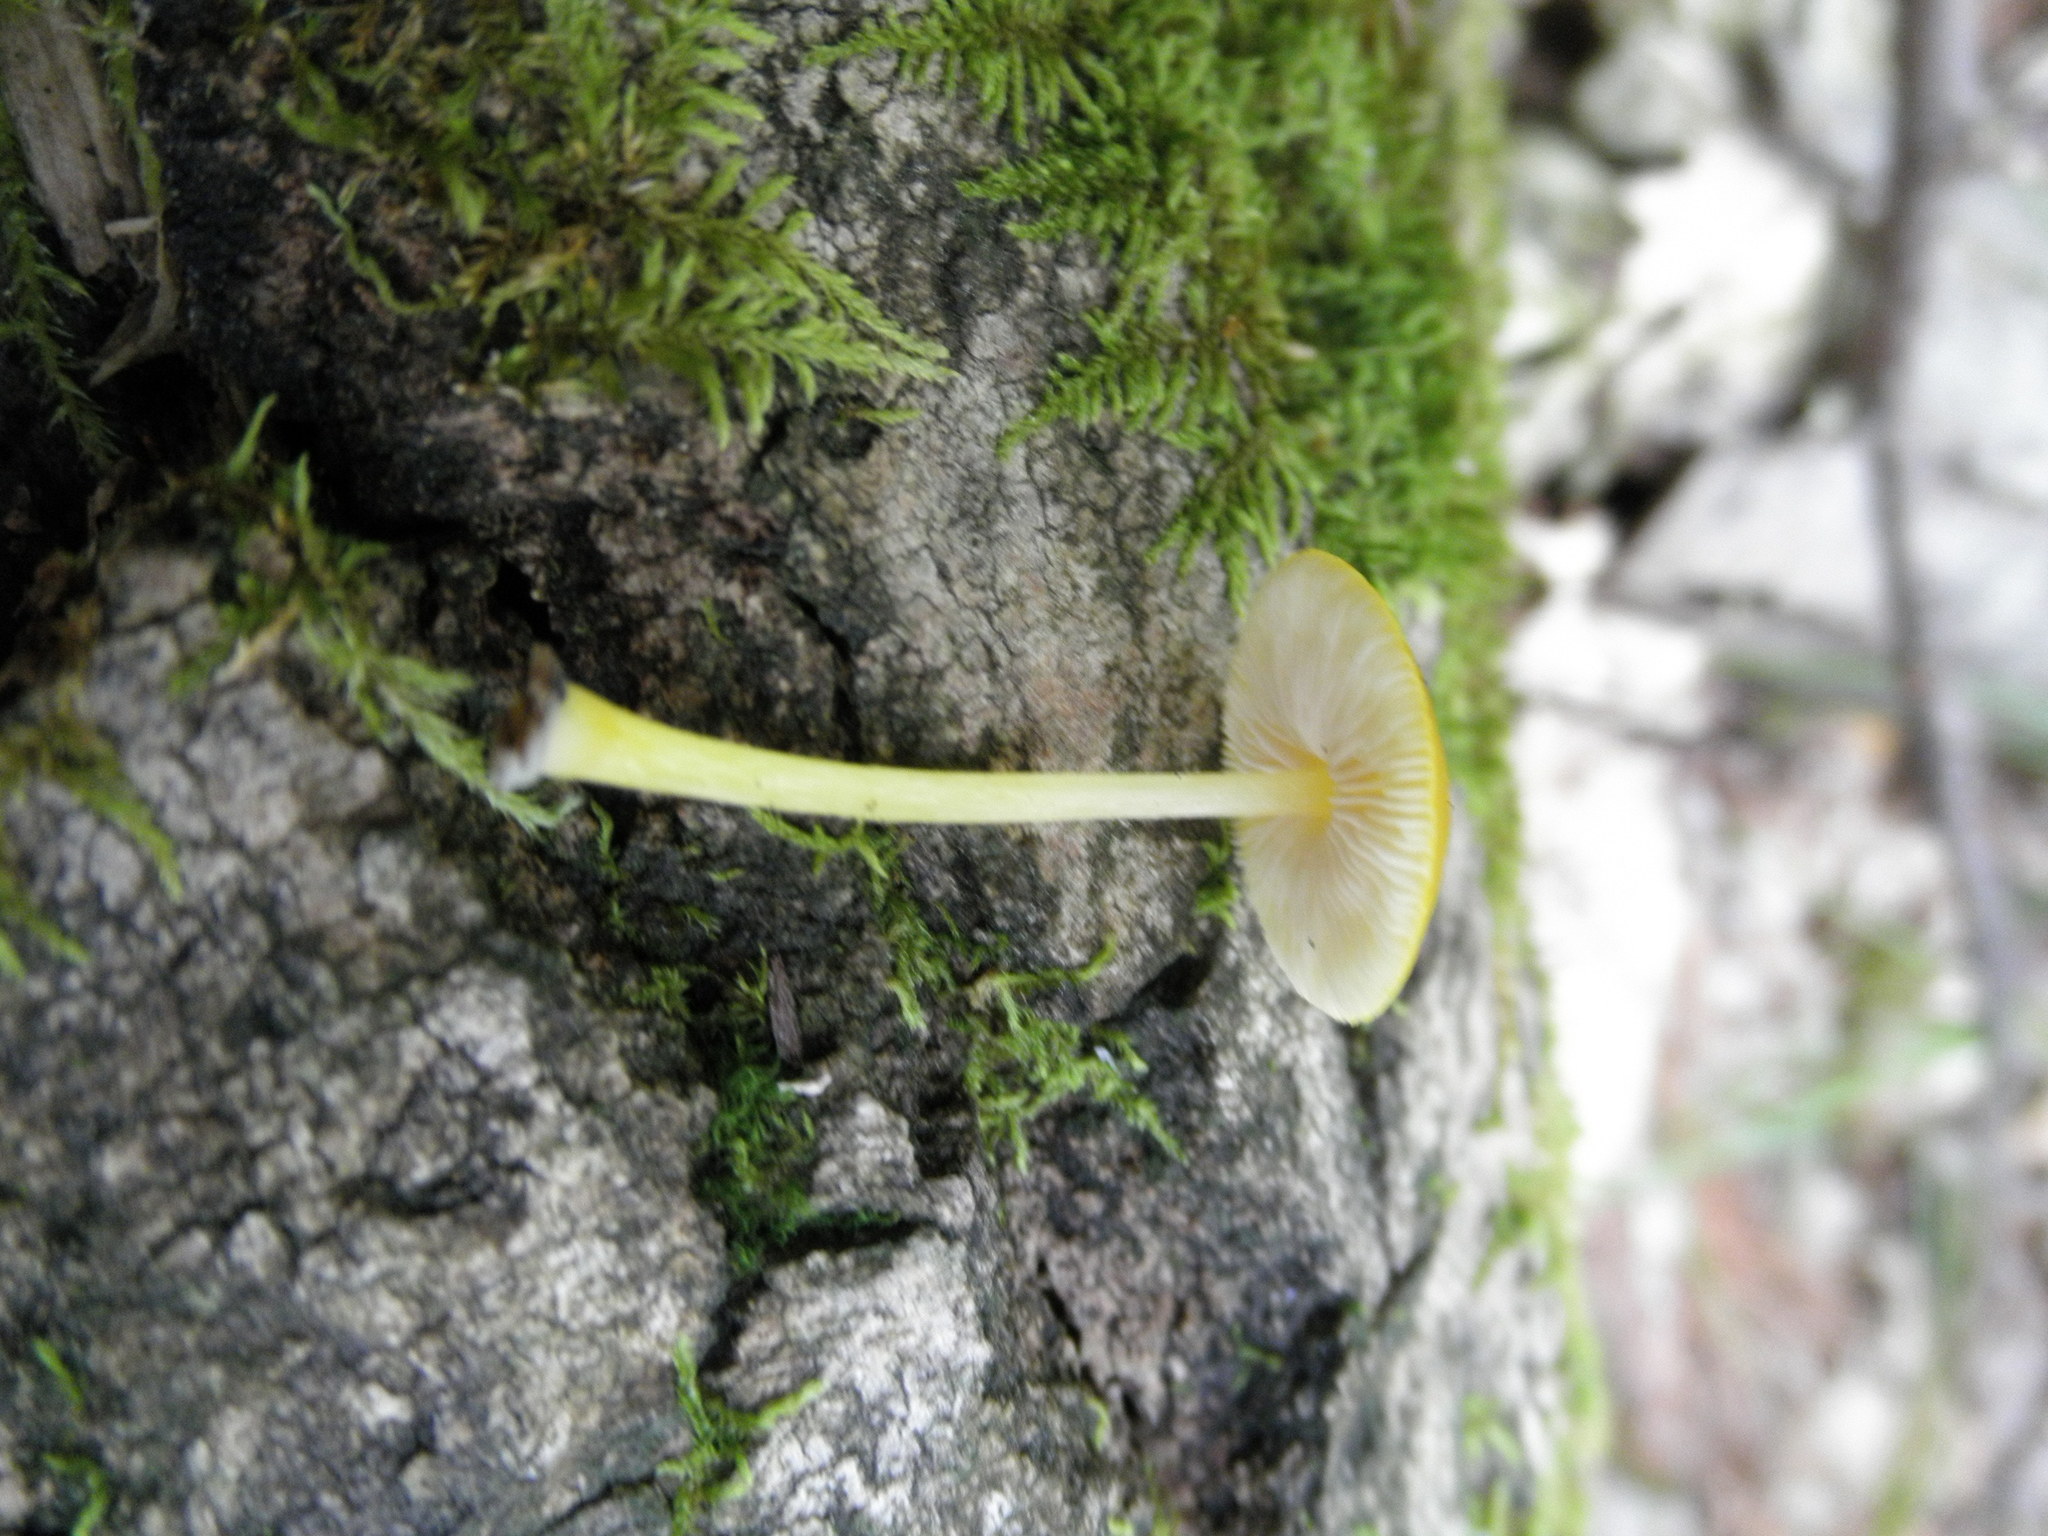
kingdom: Fungi
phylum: Basidiomycota
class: Agaricomycetes
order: Agaricales
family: Pluteaceae
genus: Pluteus
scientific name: Pluteus chrysophlebius
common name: Yellow deer mushroom
